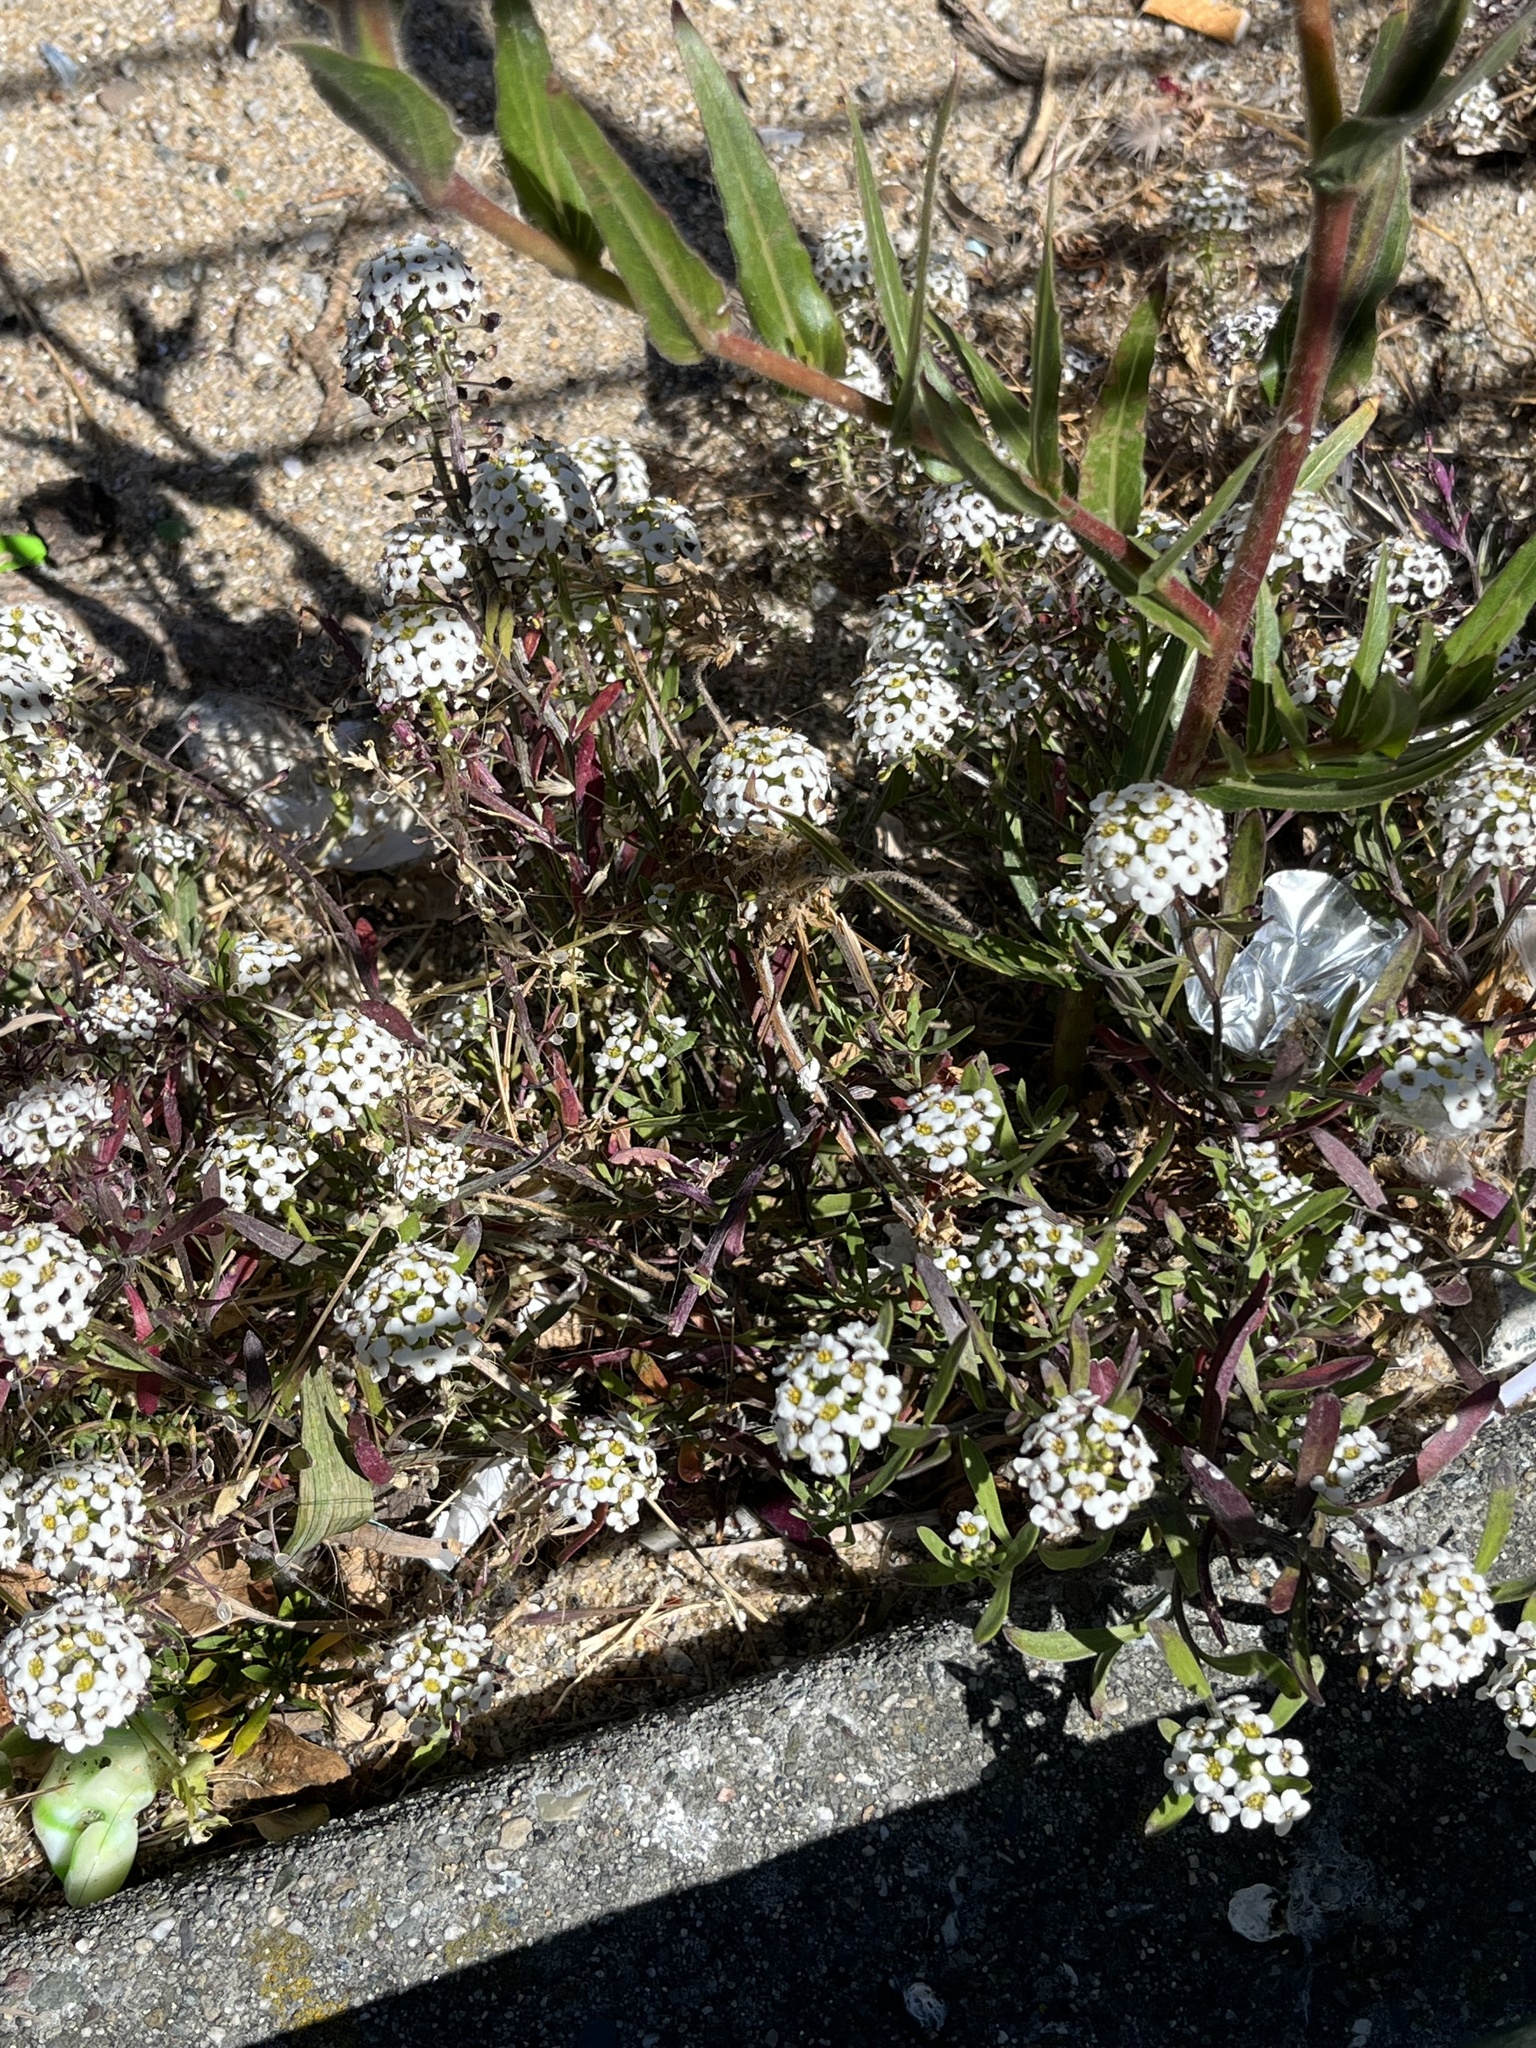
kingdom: Plantae
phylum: Tracheophyta
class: Magnoliopsida
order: Brassicales
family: Brassicaceae
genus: Lobularia
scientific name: Lobularia maritima
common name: Sweet alison
